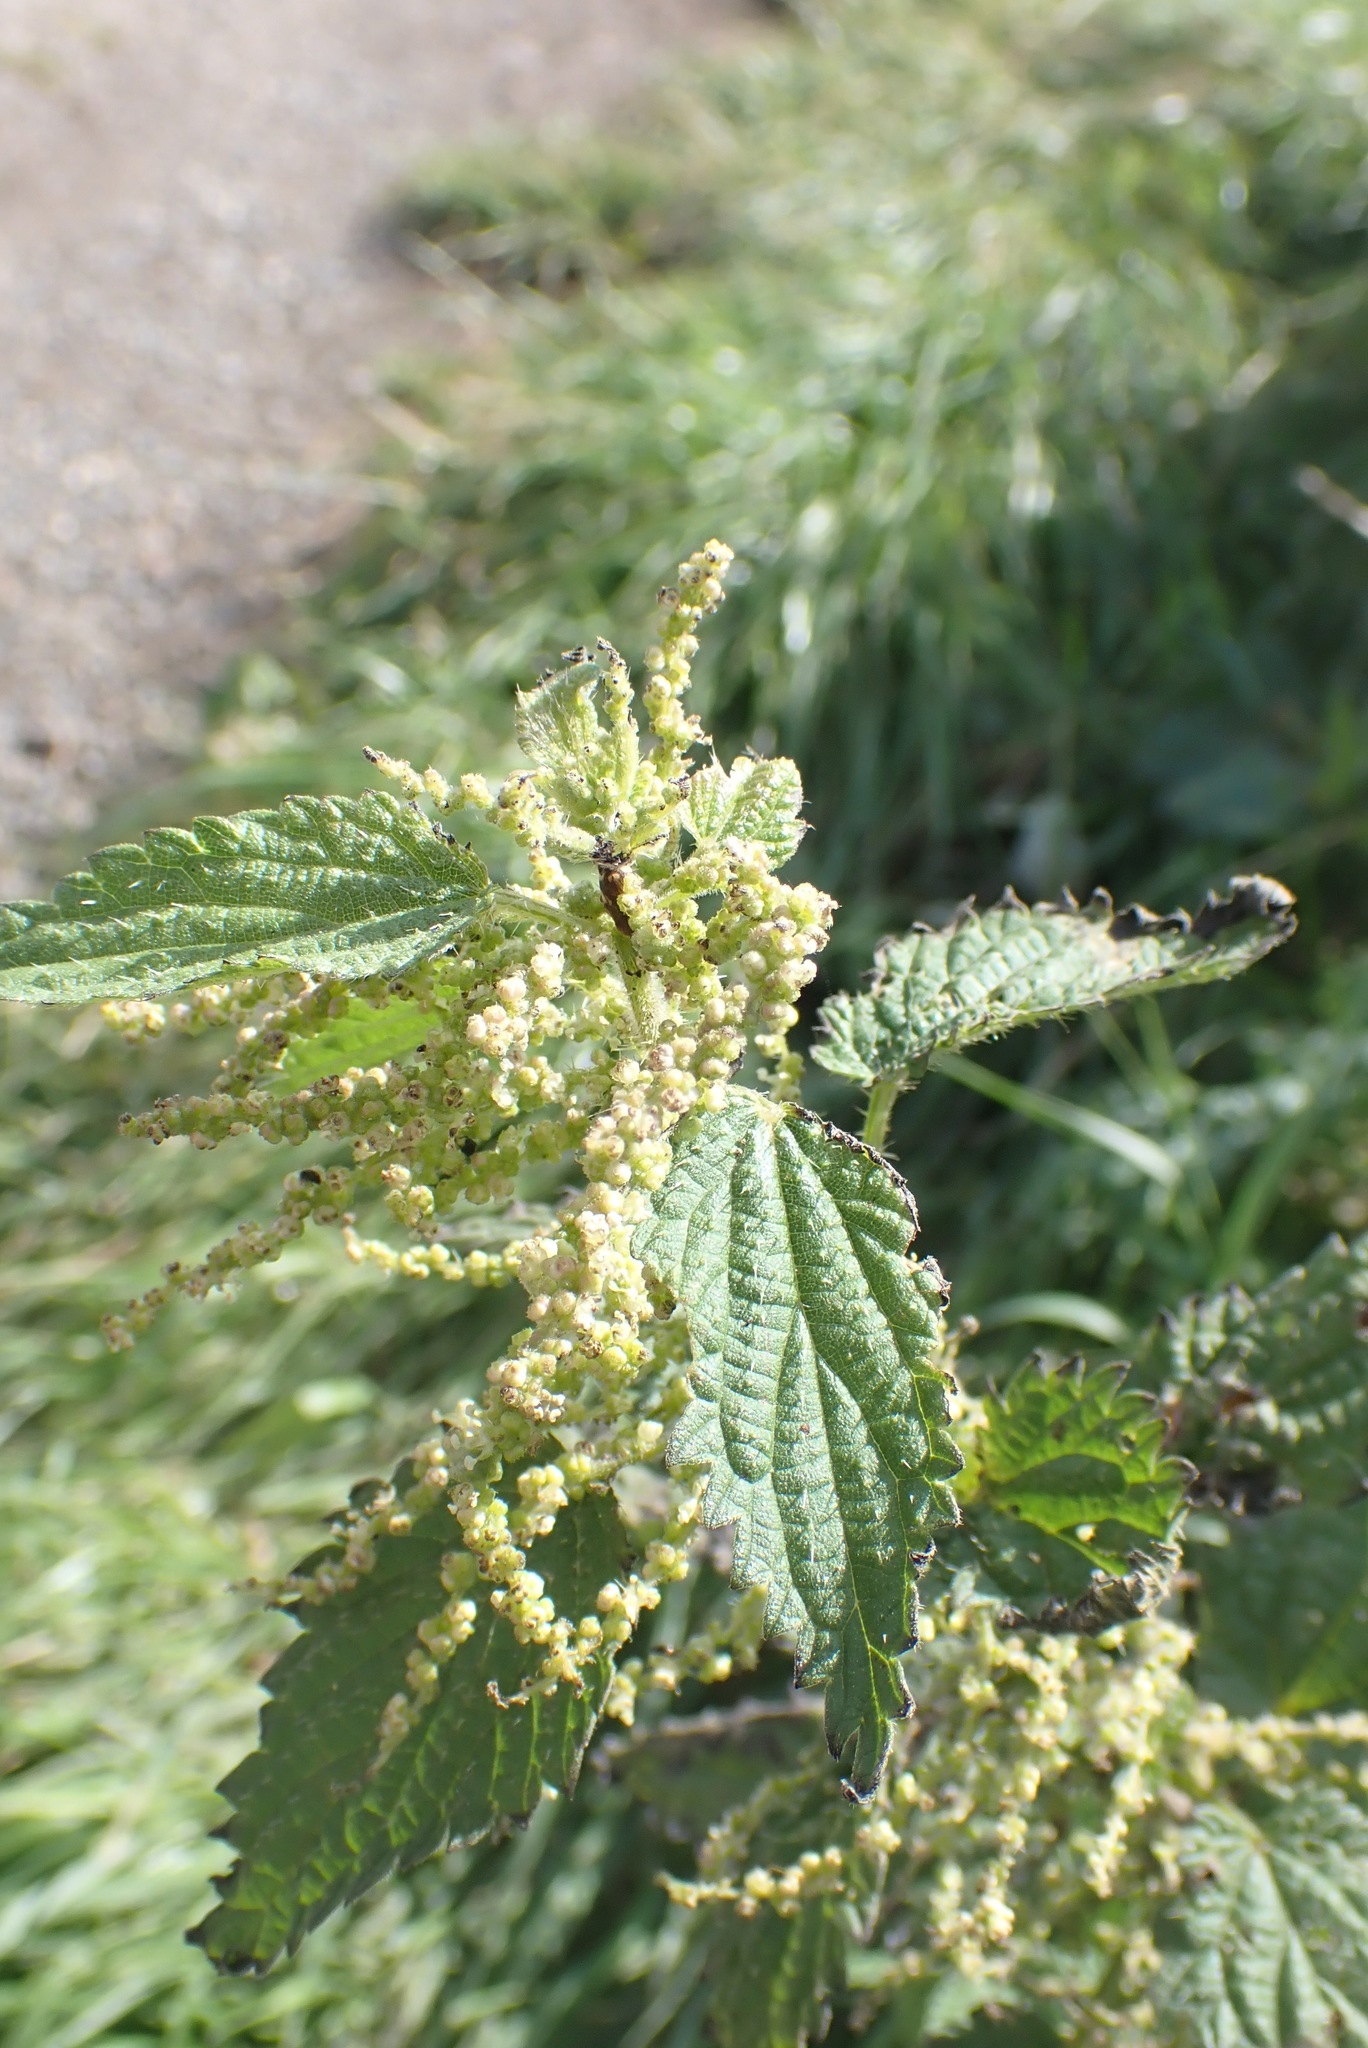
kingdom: Plantae
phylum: Tracheophyta
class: Magnoliopsida
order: Rosales
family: Urticaceae
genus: Urtica
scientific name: Urtica dioica
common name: Common nettle
